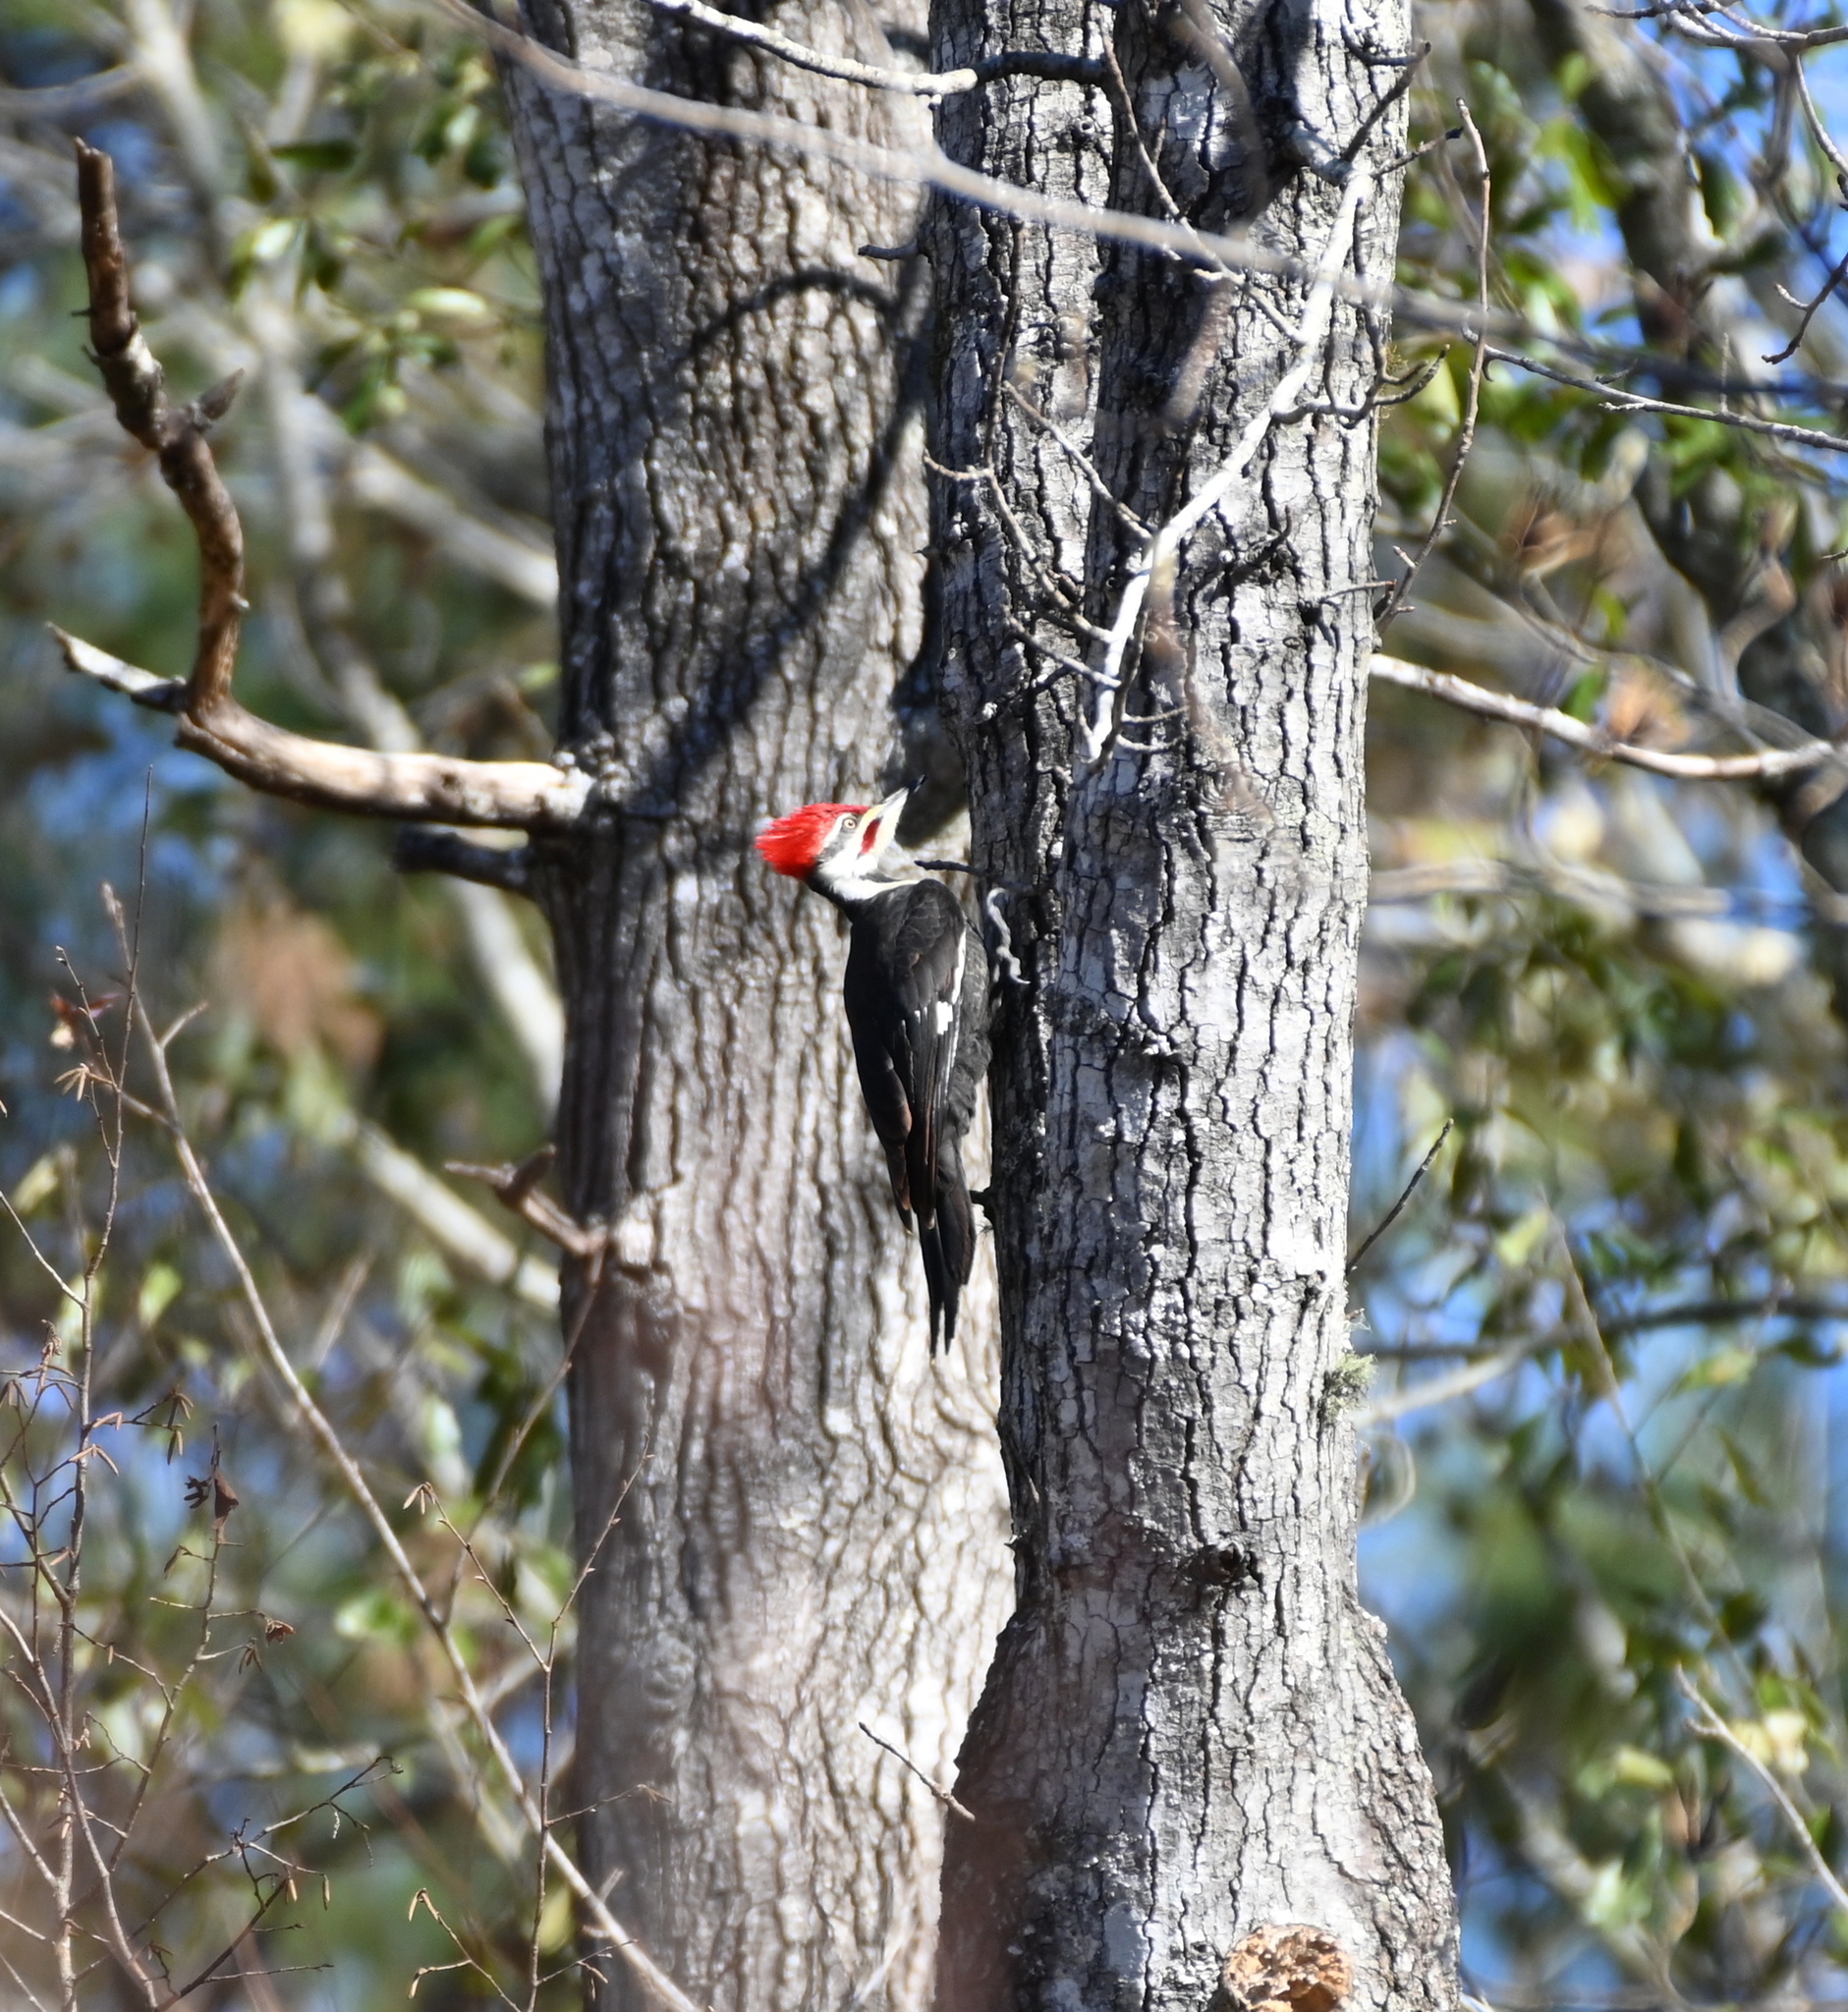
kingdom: Animalia
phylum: Chordata
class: Aves
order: Piciformes
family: Picidae
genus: Dryocopus
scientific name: Dryocopus pileatus
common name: Pileated woodpecker
